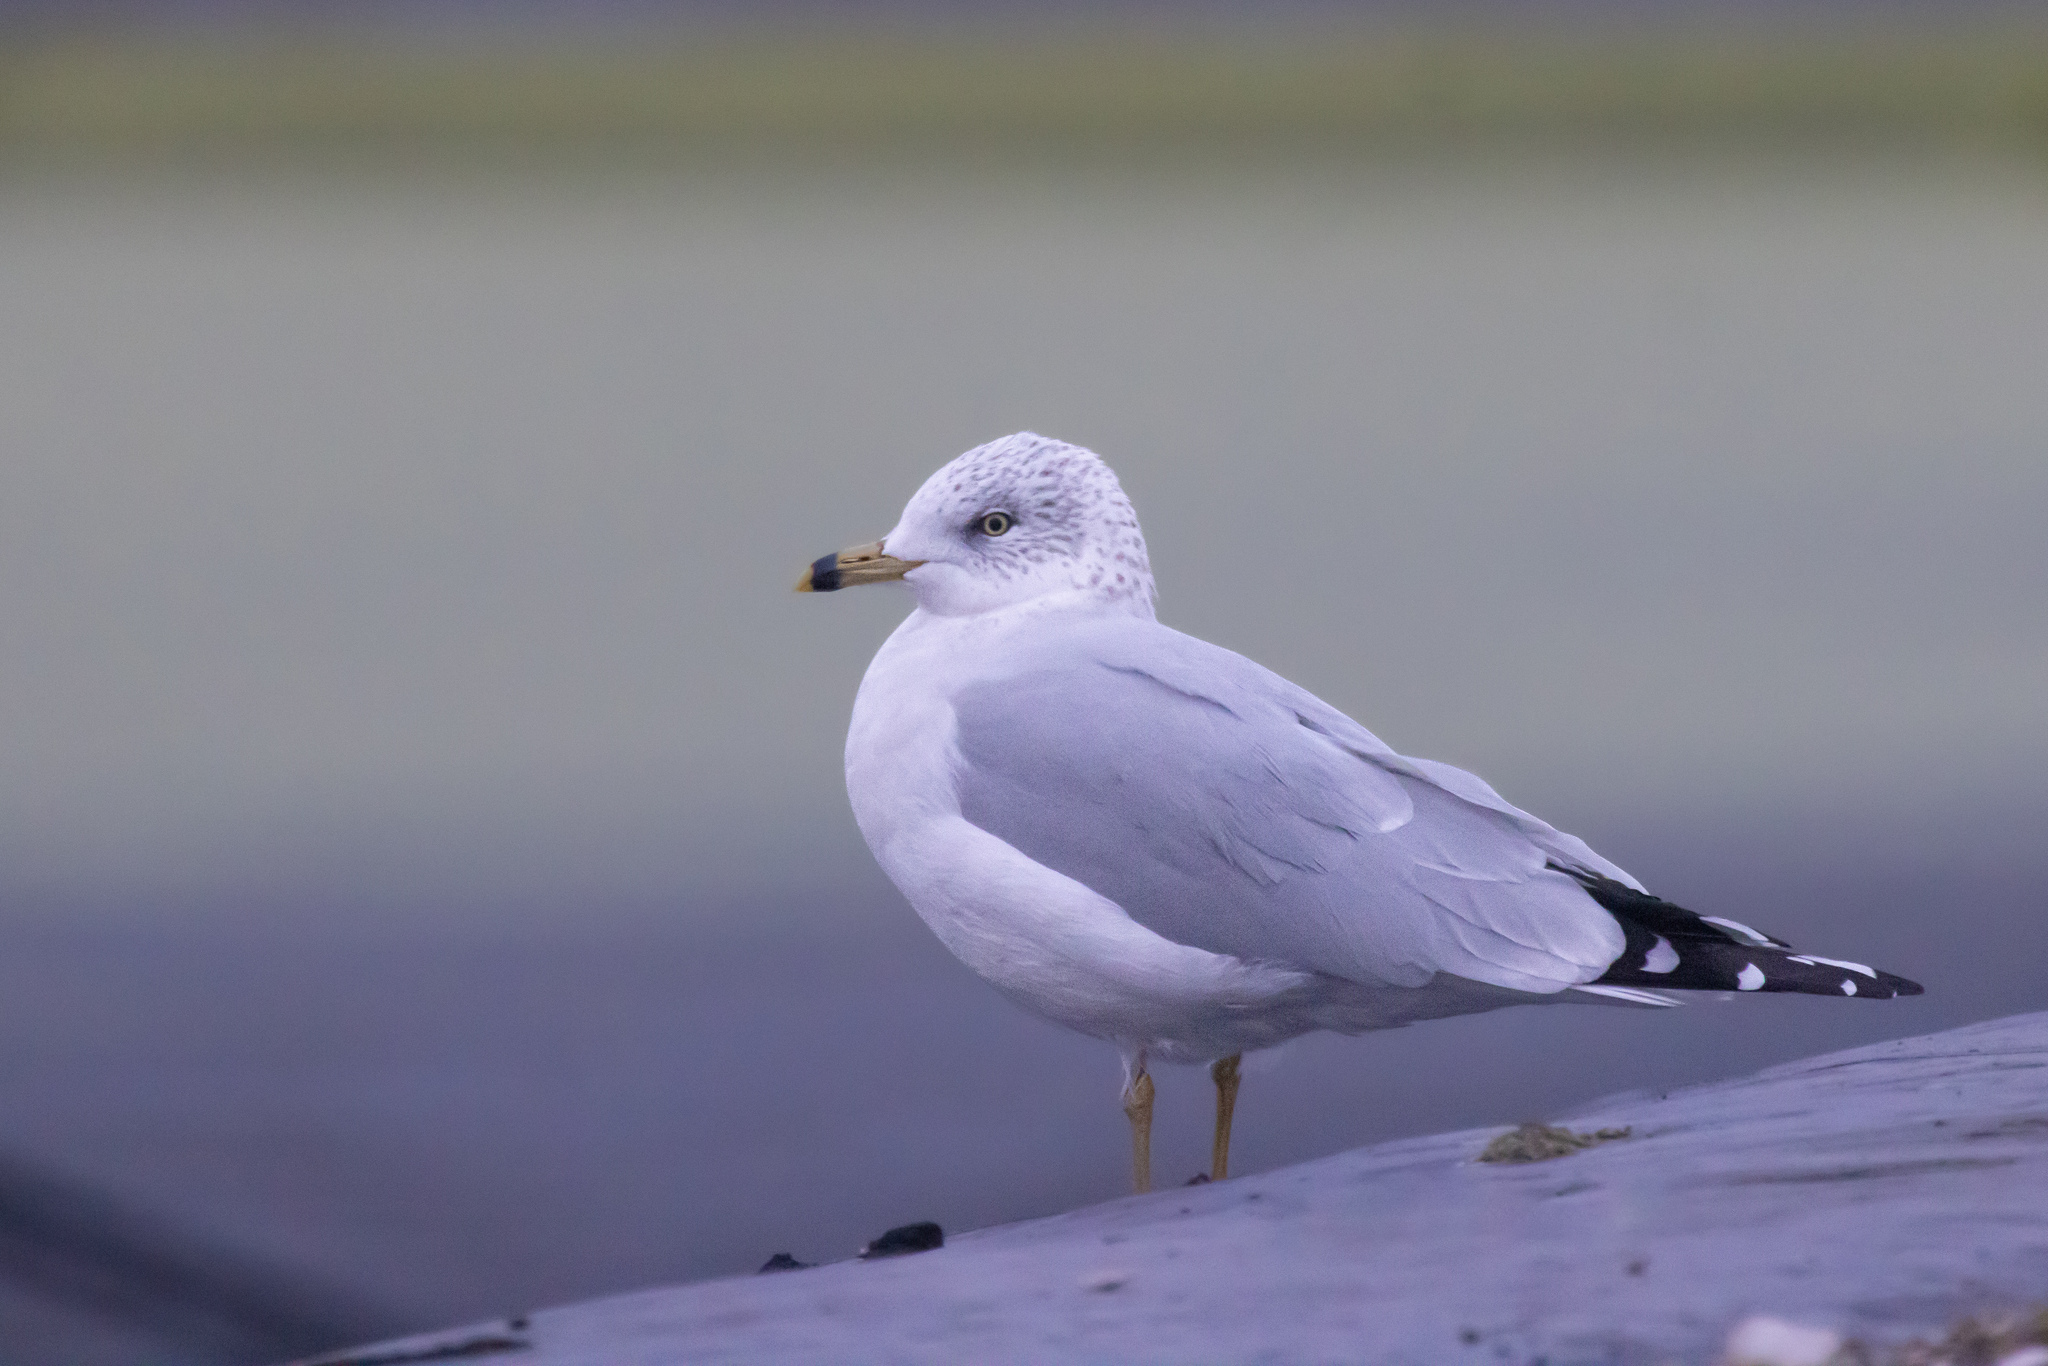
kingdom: Animalia
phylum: Chordata
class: Aves
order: Charadriiformes
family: Laridae
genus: Larus
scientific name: Larus delawarensis
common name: Ring-billed gull
